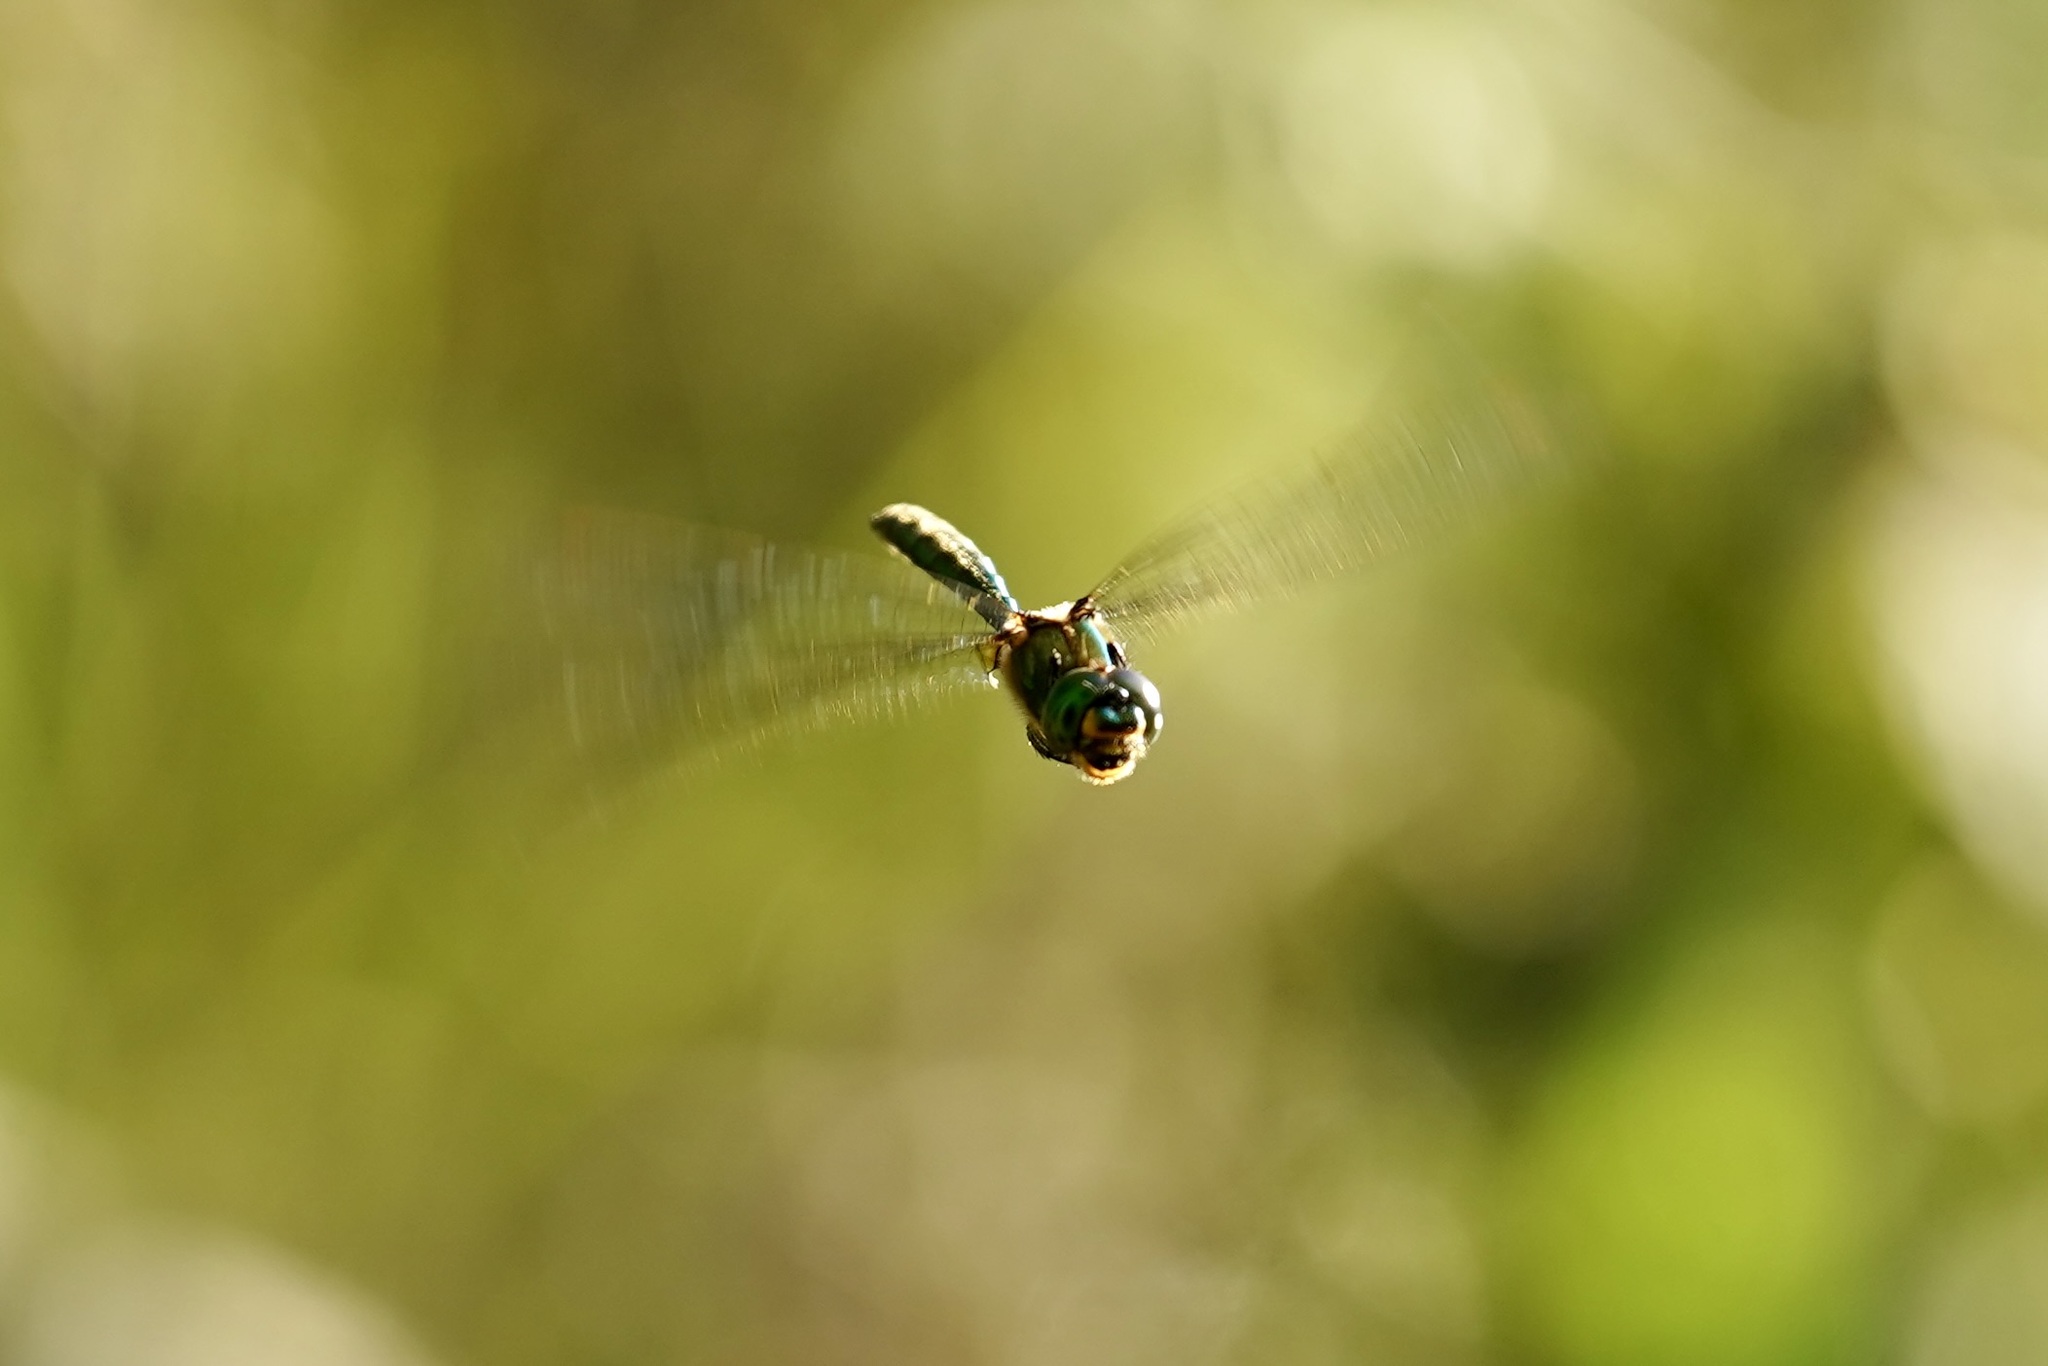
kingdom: Animalia
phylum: Arthropoda
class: Insecta
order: Odonata
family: Corduliidae
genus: Somatochlora
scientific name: Somatochlora metallica
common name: Brilliant emerald
